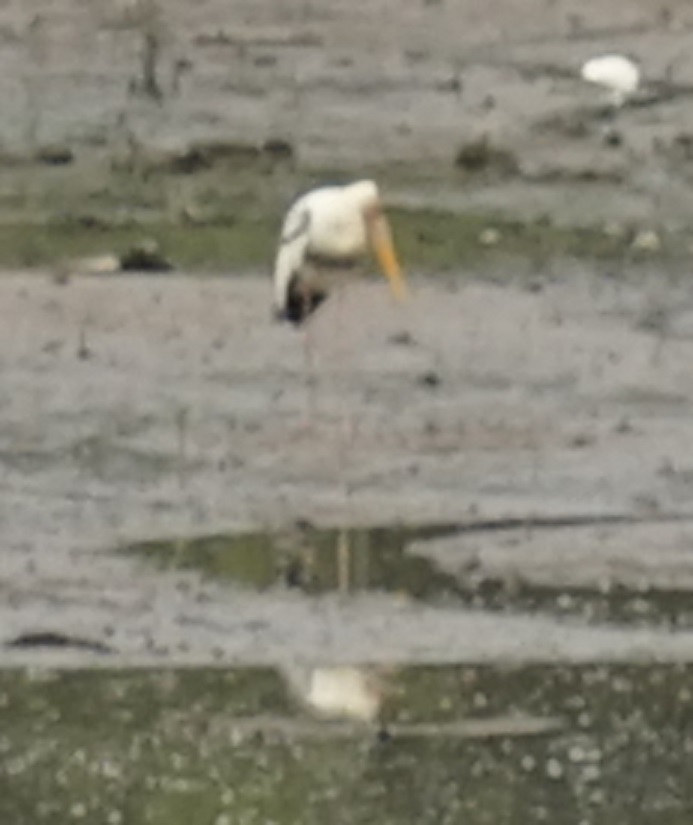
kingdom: Animalia
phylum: Chordata
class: Aves
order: Ciconiiformes
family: Ciconiidae
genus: Mycteria
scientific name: Mycteria leucocephala
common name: Painted stork
